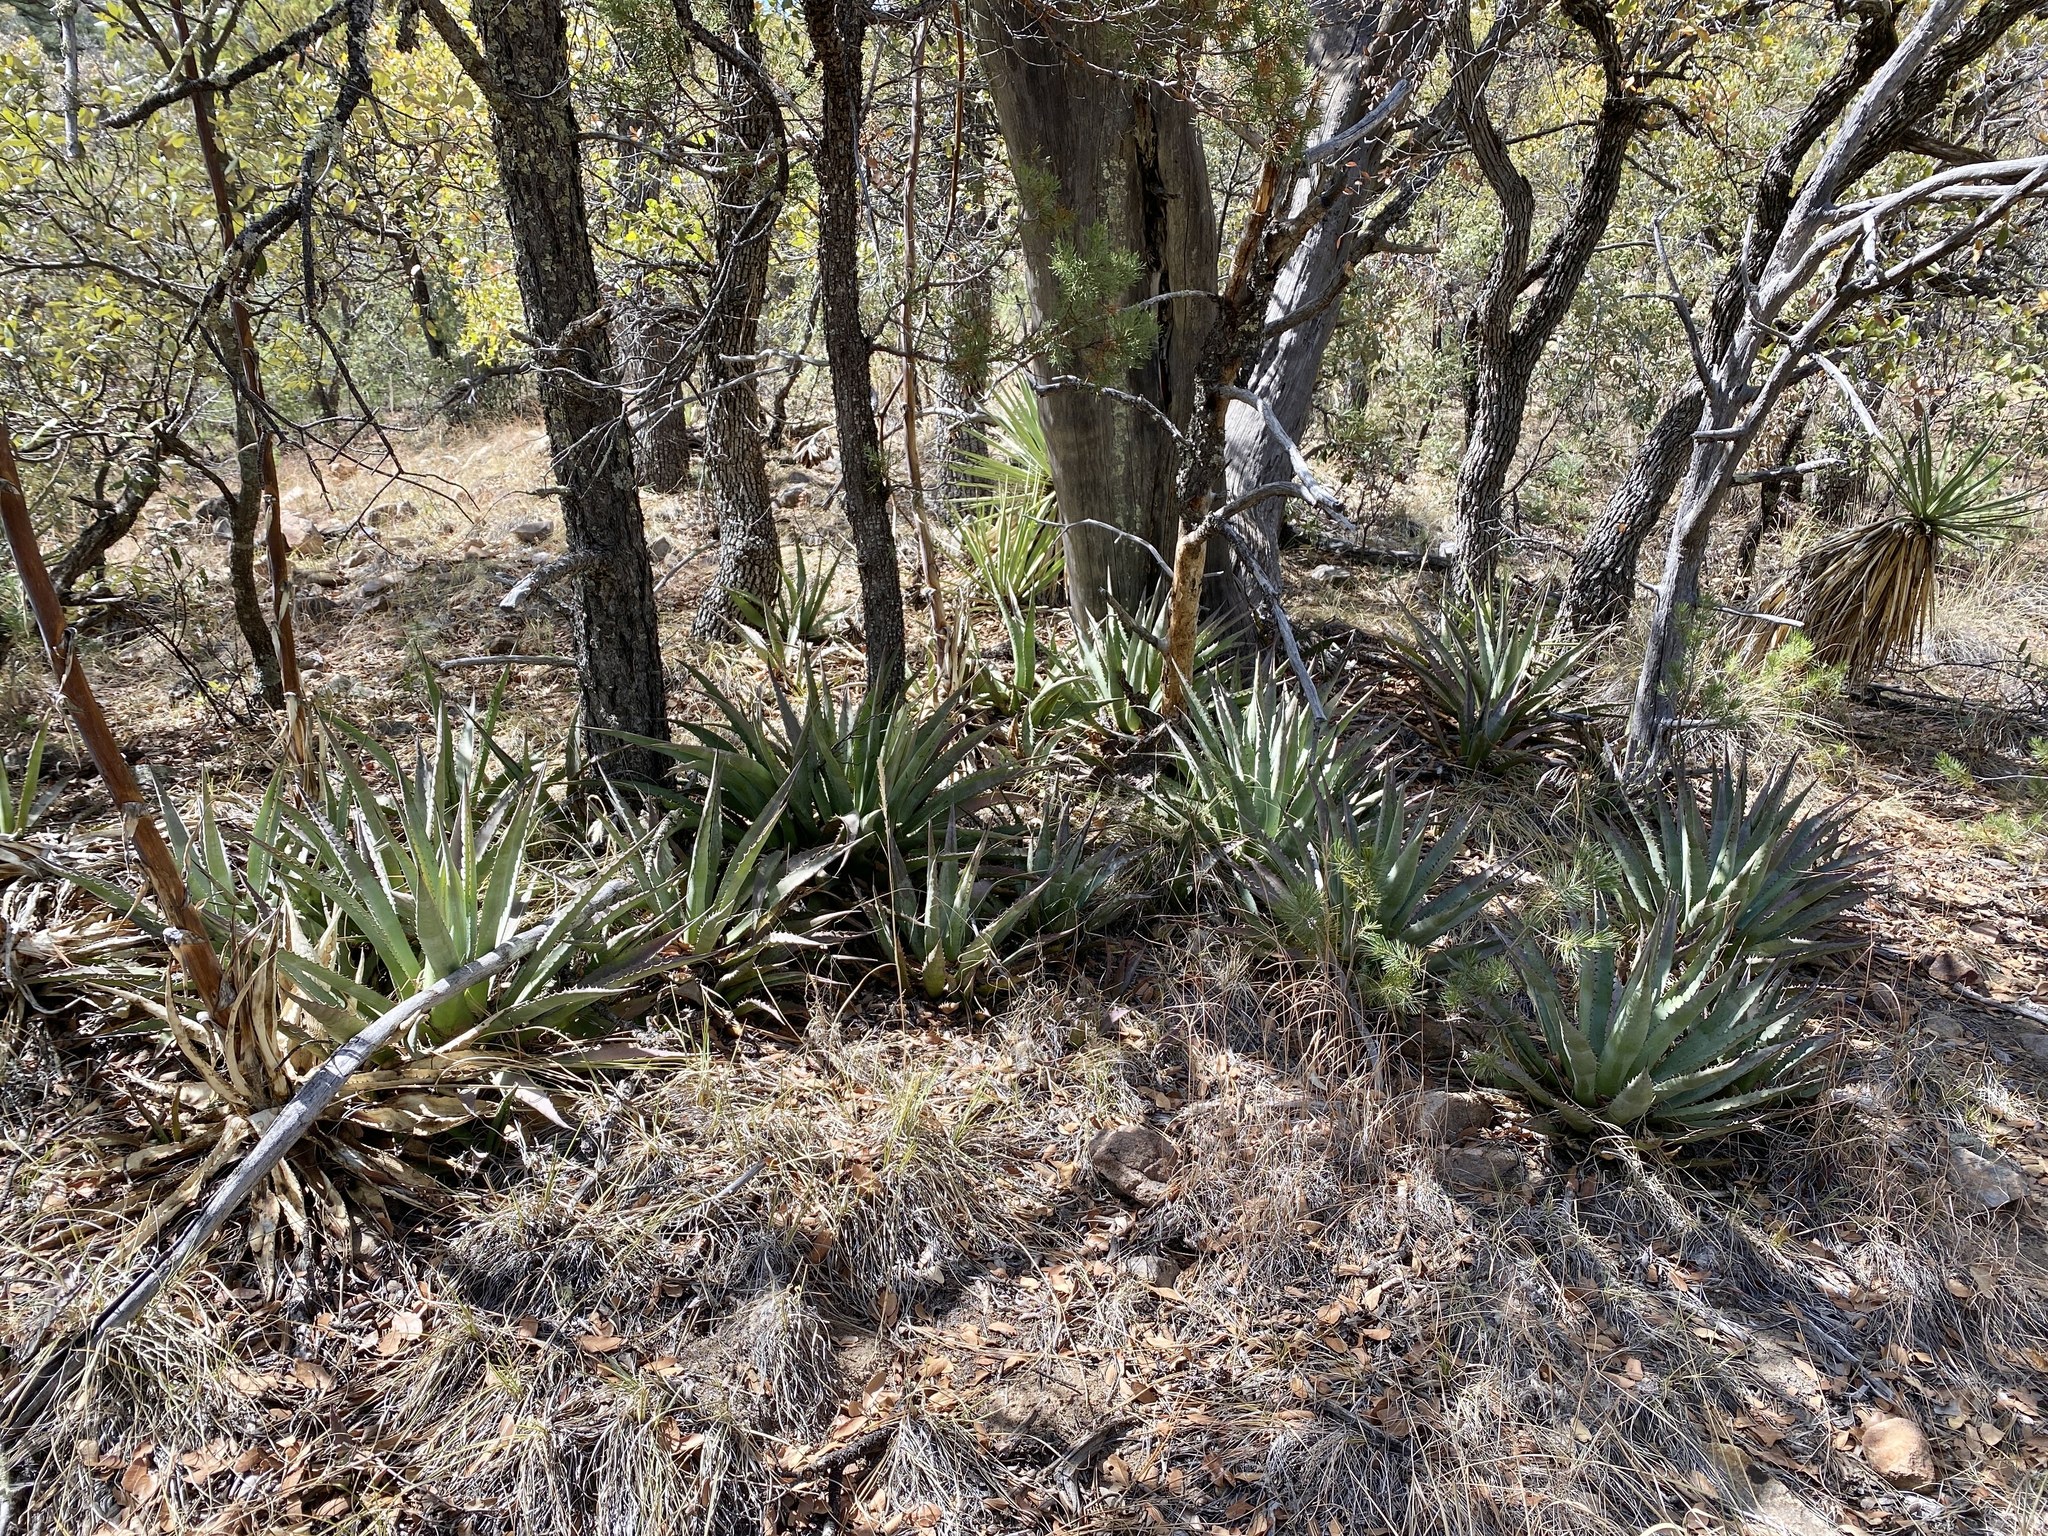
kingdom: Plantae
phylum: Tracheophyta
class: Liliopsida
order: Asparagales
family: Asparagaceae
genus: Agave
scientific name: Agave palmeri
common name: Palmer agave
